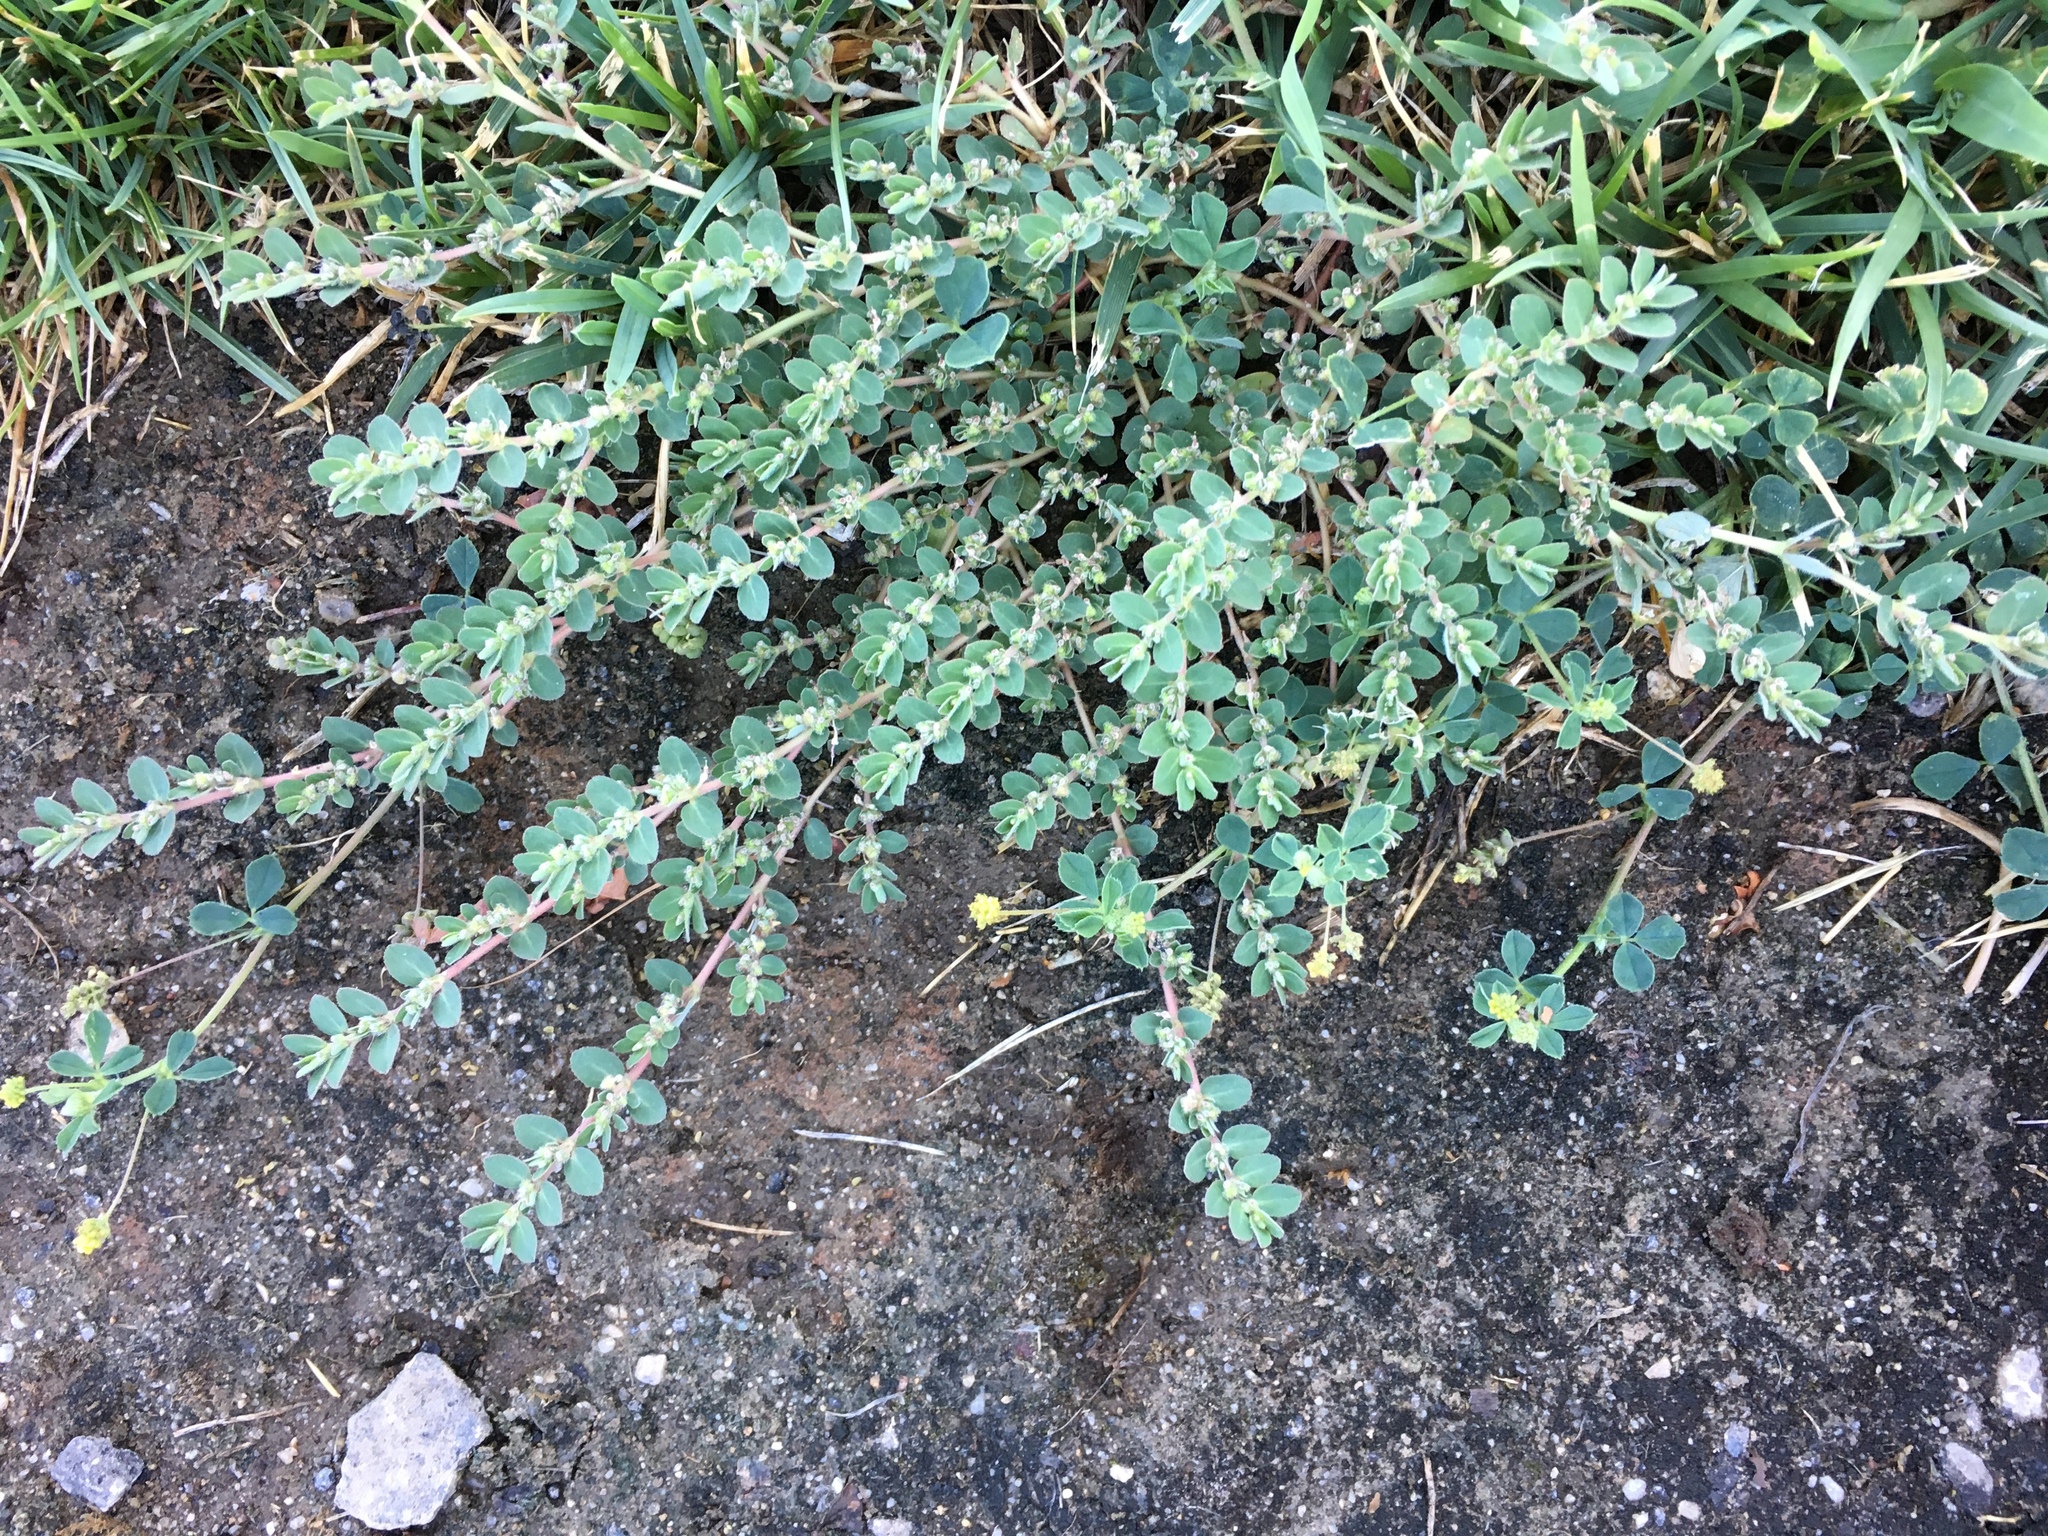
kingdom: Plantae
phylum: Tracheophyta
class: Magnoliopsida
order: Malpighiales
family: Euphorbiaceae
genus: Euphorbia
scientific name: Euphorbia prostrata
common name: Prostrate sandmat
